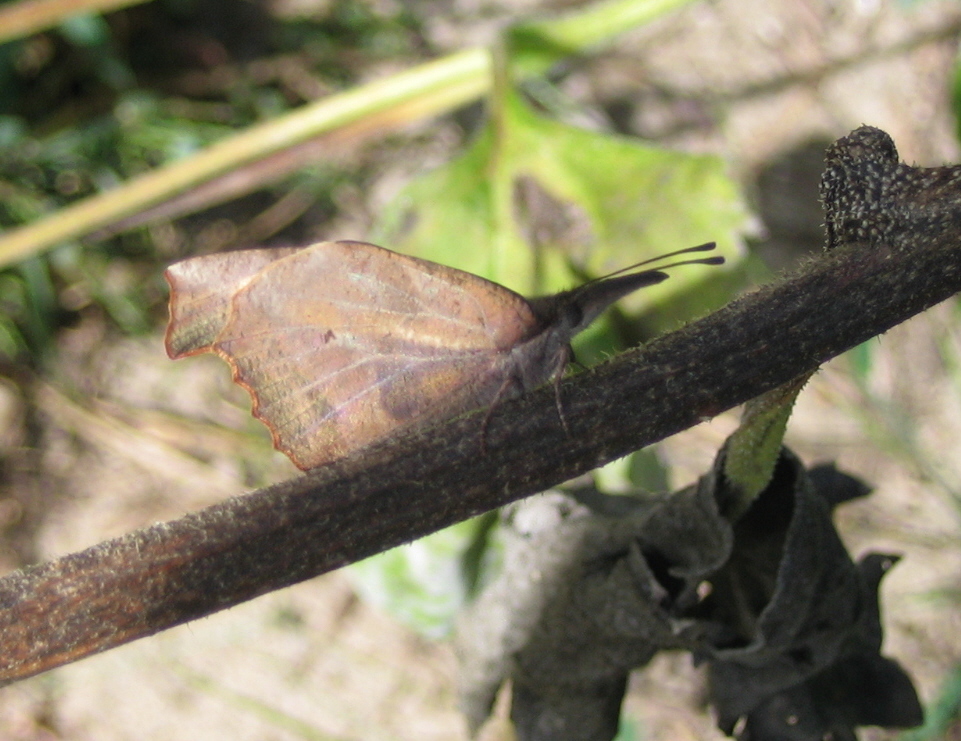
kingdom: Animalia
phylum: Arthropoda
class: Insecta
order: Lepidoptera
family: Nymphalidae
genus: Libytheana
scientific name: Libytheana carinenta
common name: American snout
